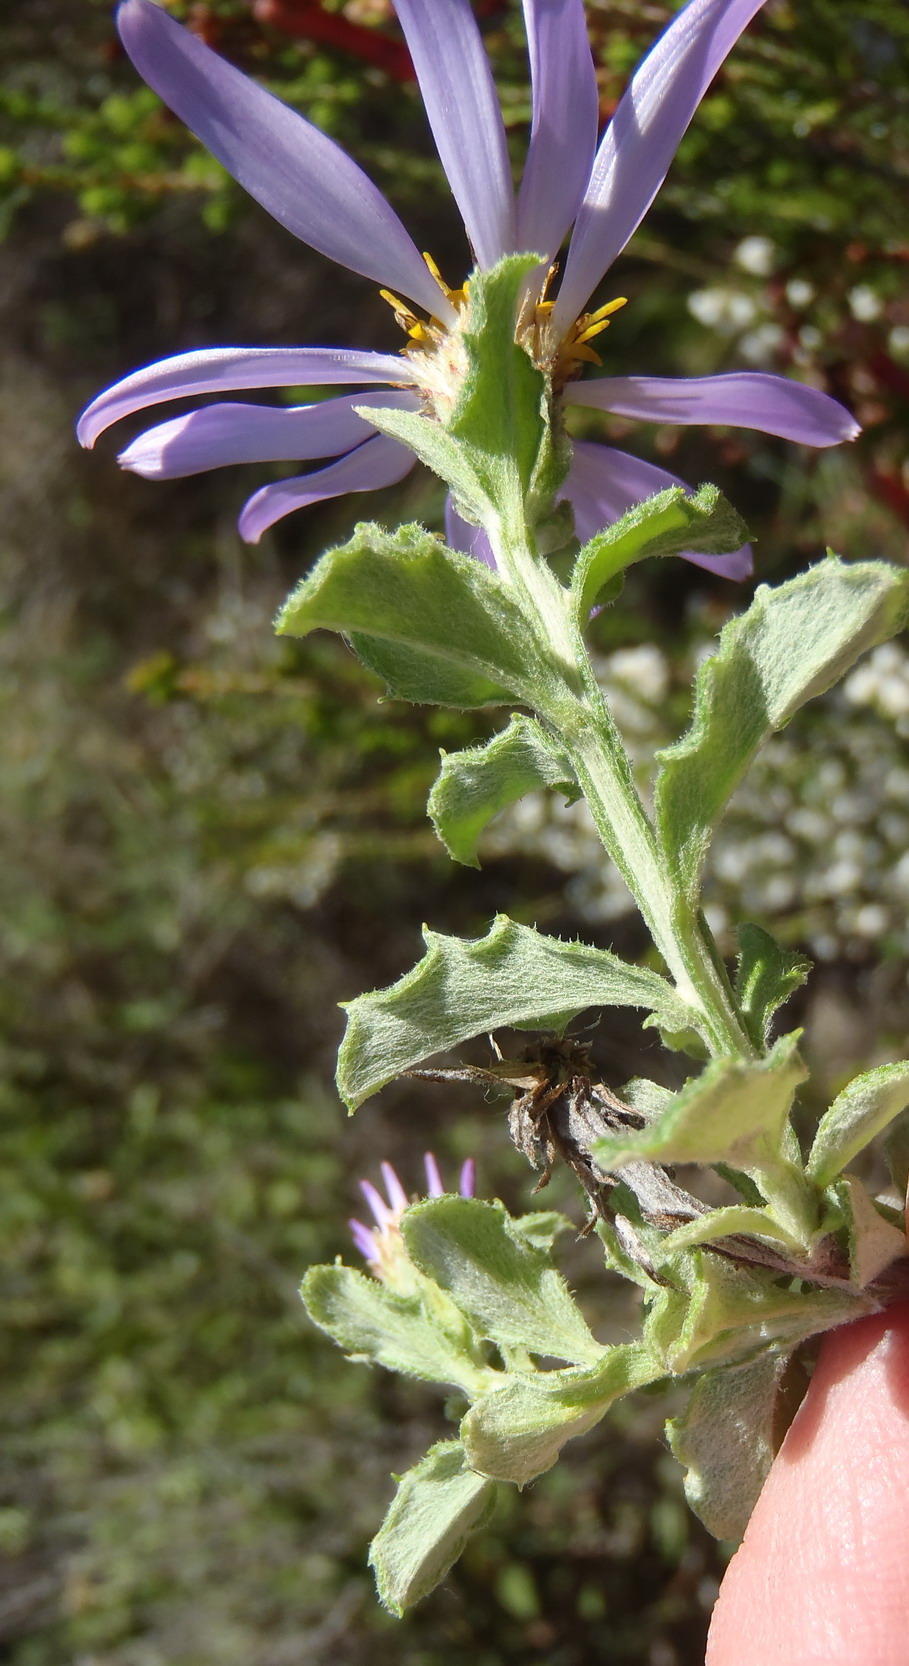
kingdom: Plantae
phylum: Tracheophyta
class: Magnoliopsida
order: Asterales
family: Asteraceae
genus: Printzia
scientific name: Printzia polifolia
